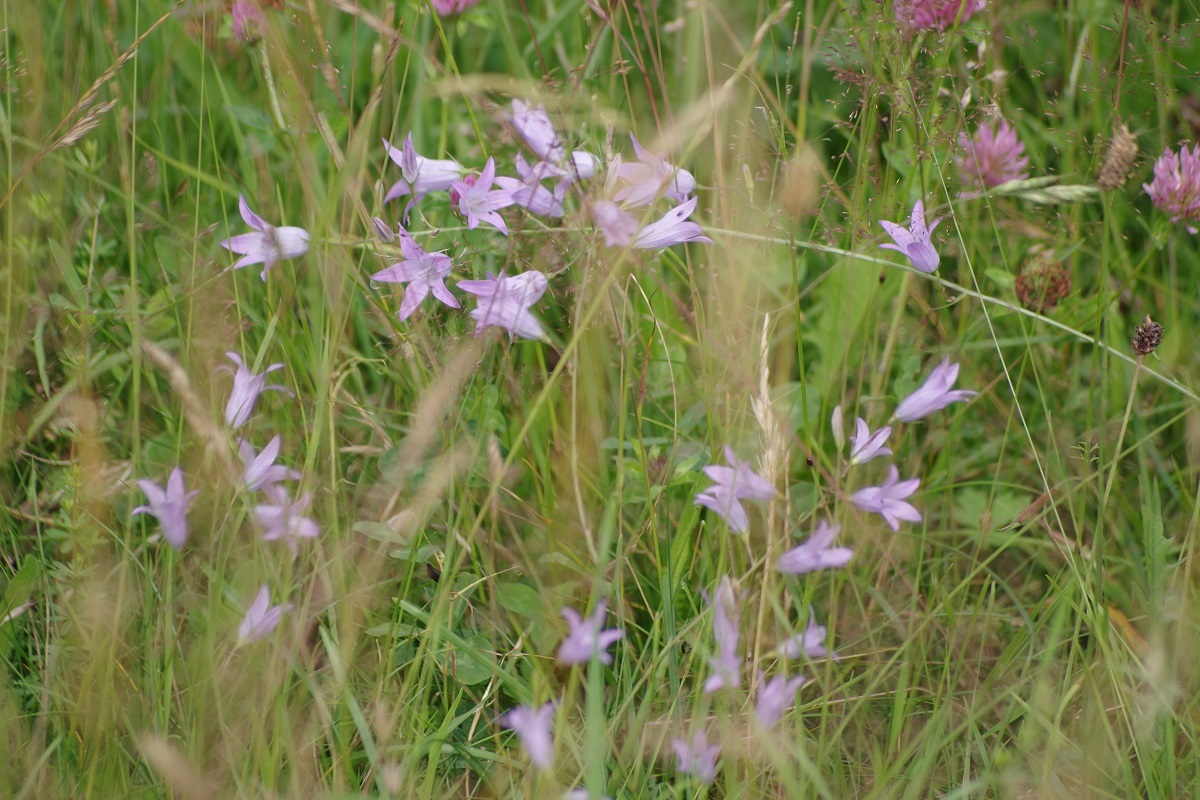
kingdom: Plantae
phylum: Tracheophyta
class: Magnoliopsida
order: Asterales
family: Campanulaceae
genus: Campanula
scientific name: Campanula patula
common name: Spreading bellflower
